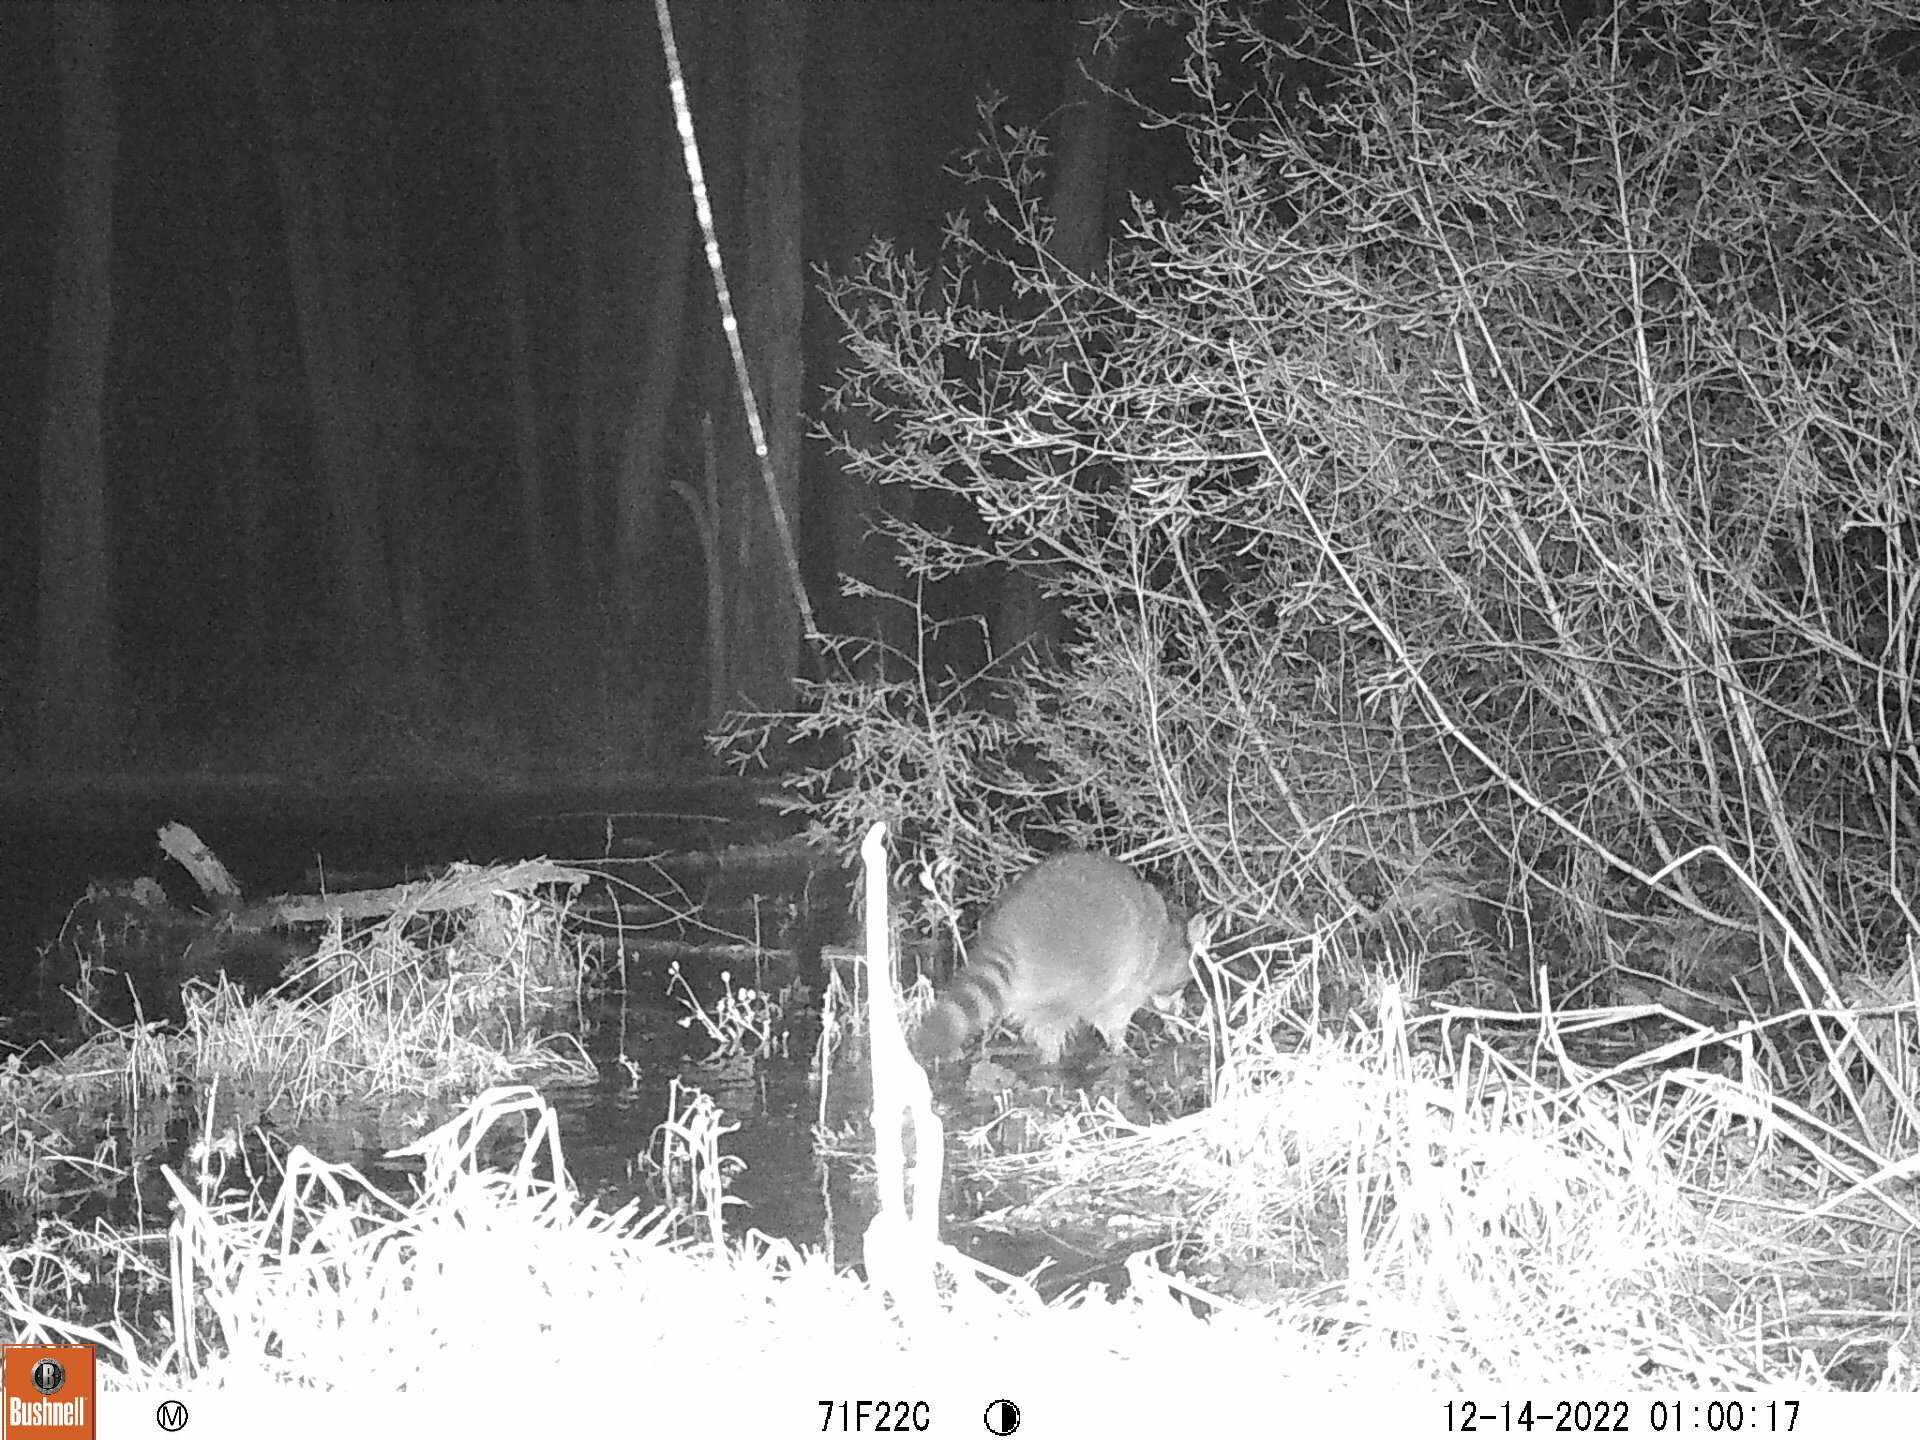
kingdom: Animalia
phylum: Chordata
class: Mammalia
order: Carnivora
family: Procyonidae
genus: Procyon
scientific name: Procyon lotor
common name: Raccoon
